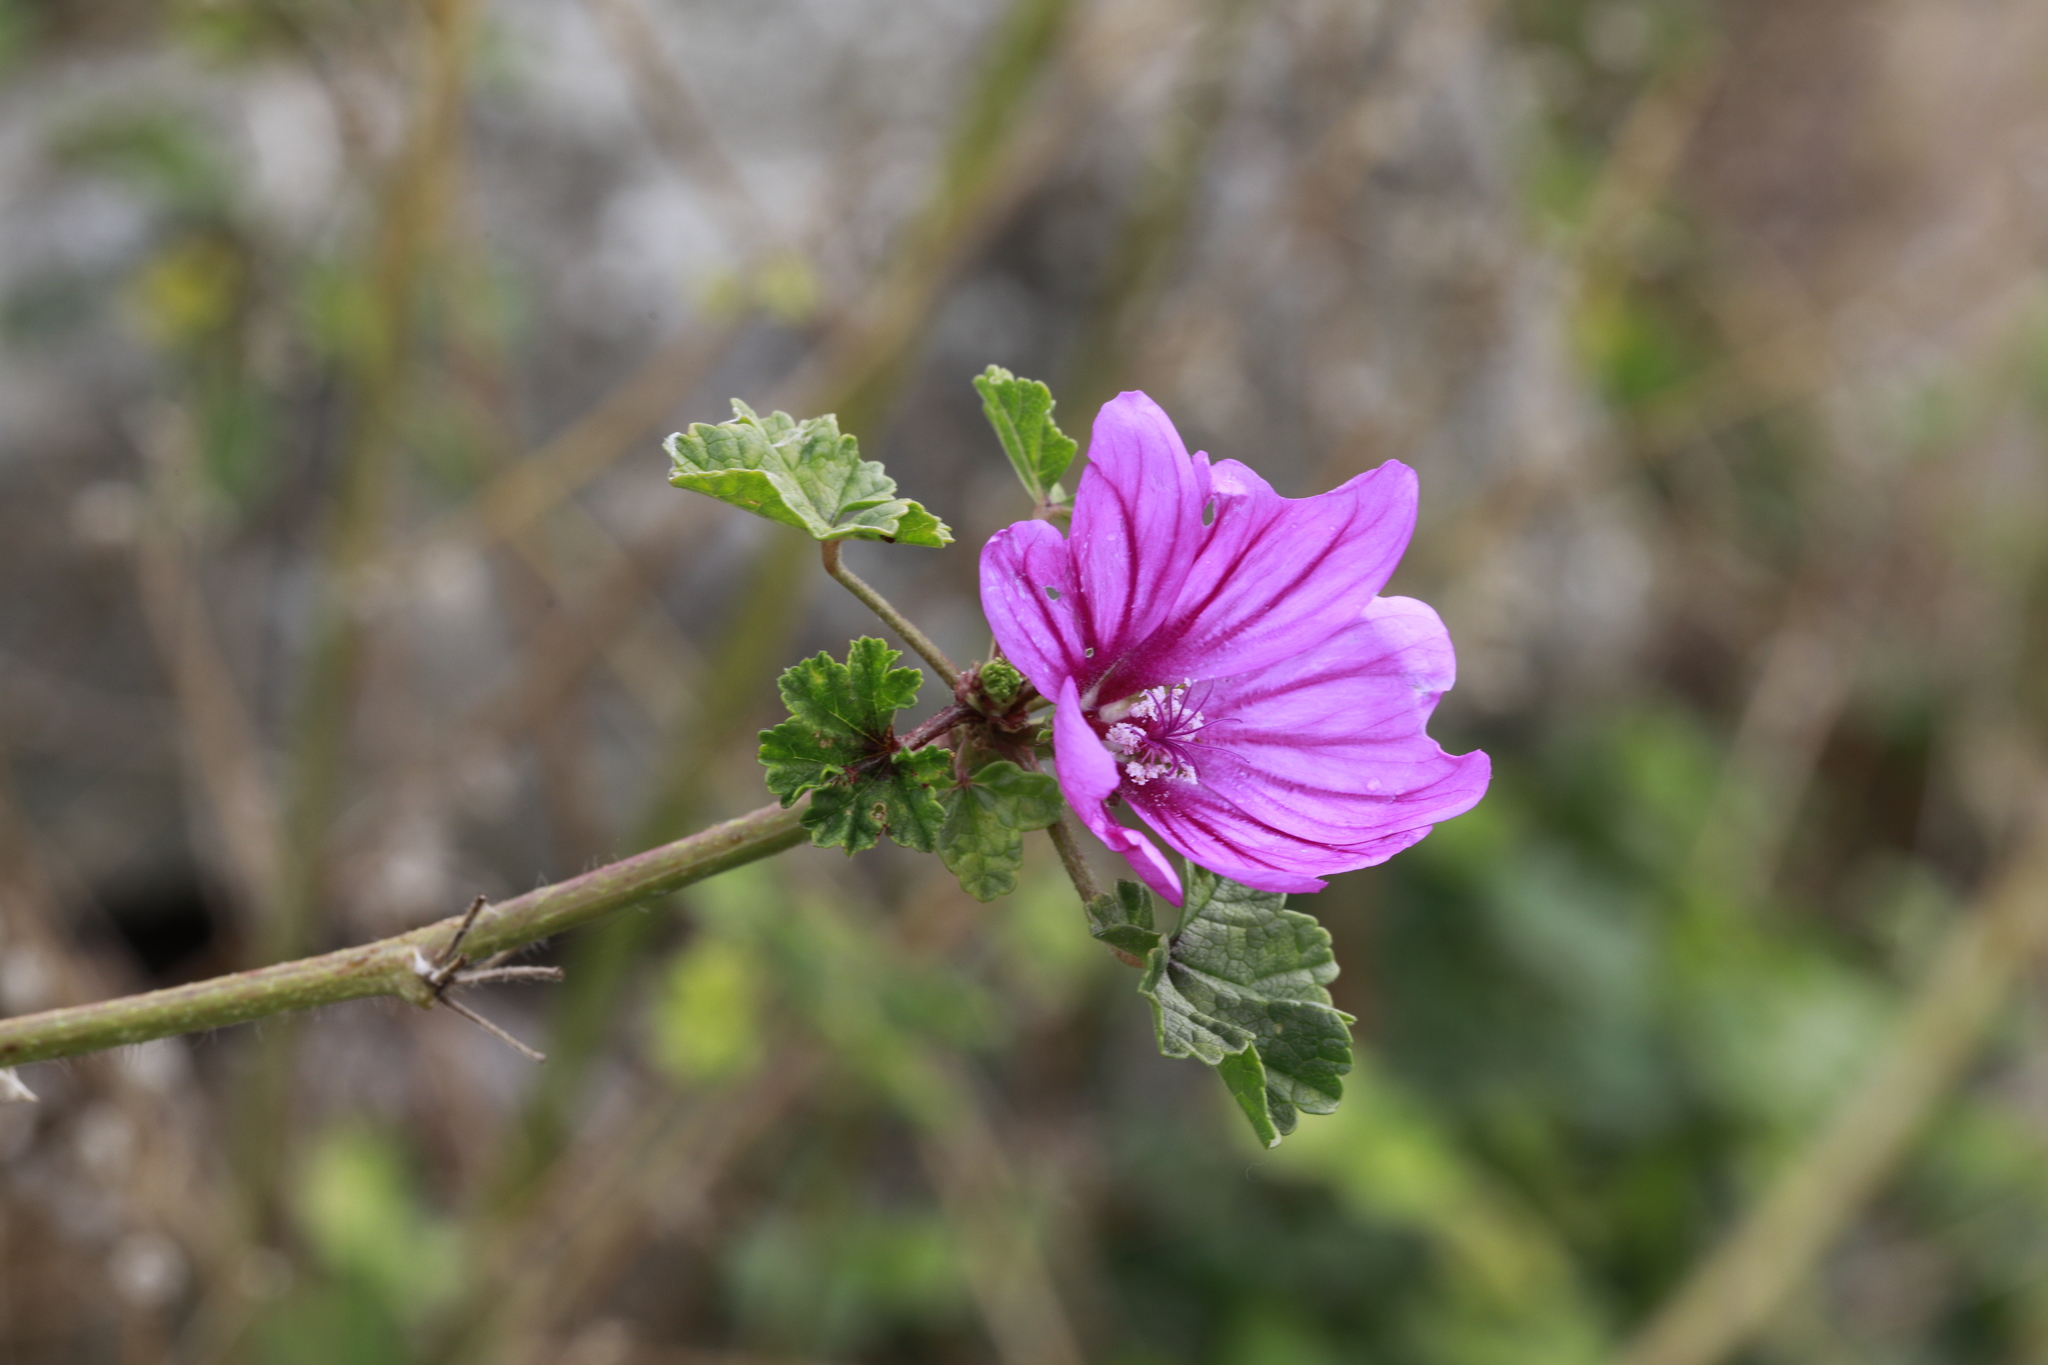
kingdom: Plantae
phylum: Tracheophyta
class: Magnoliopsida
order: Malvales
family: Malvaceae
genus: Malva
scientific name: Malva sylvestris
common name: Common mallow
